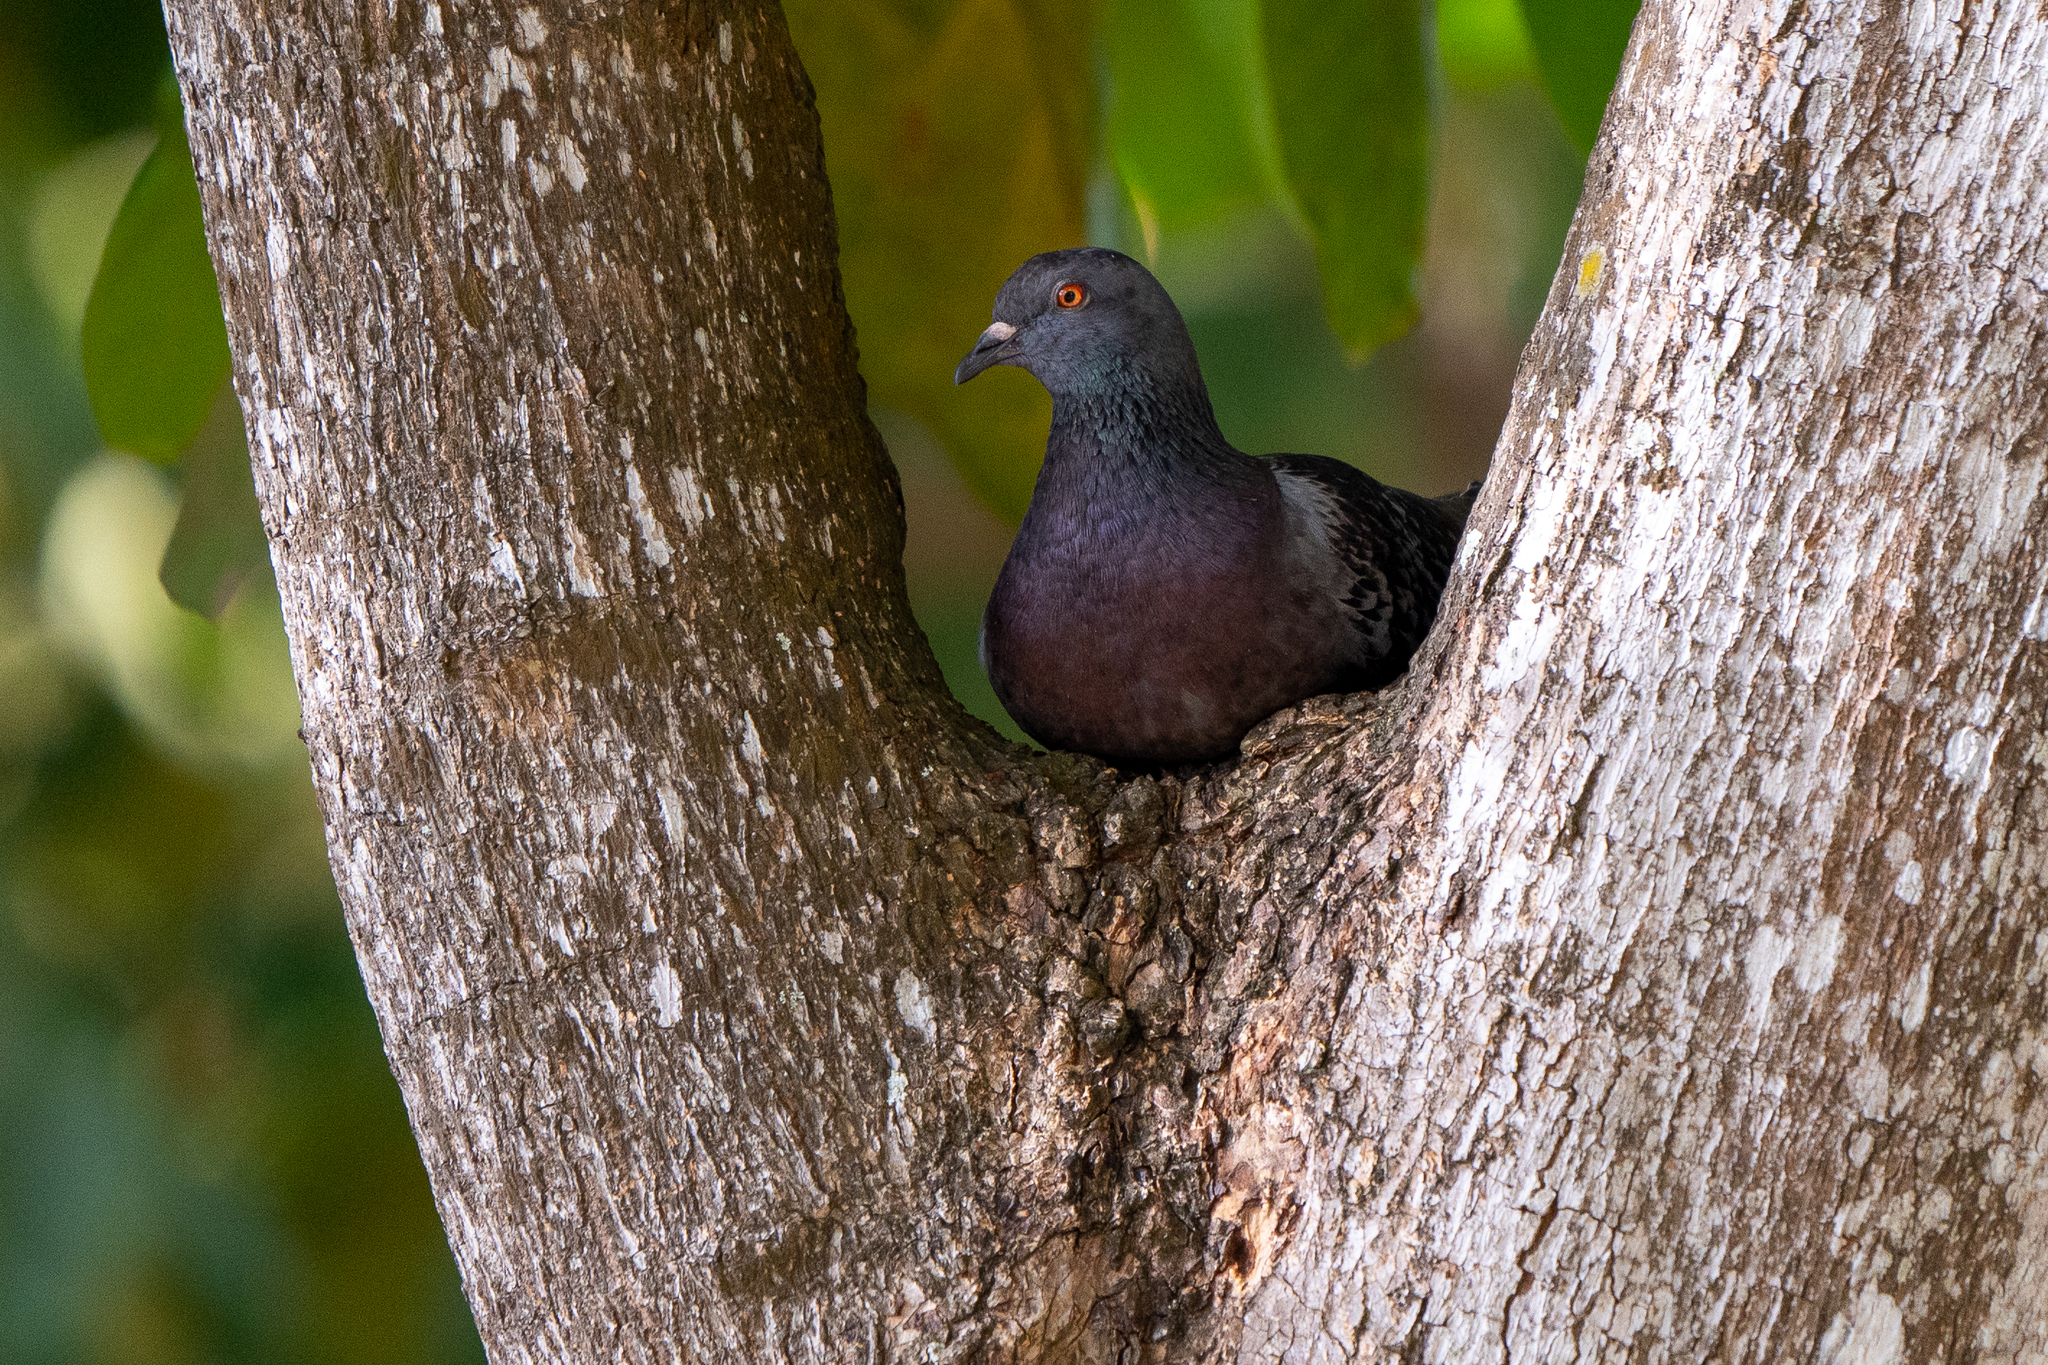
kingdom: Animalia
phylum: Chordata
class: Aves
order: Columbiformes
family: Columbidae
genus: Columba
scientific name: Columba livia
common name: Rock pigeon
